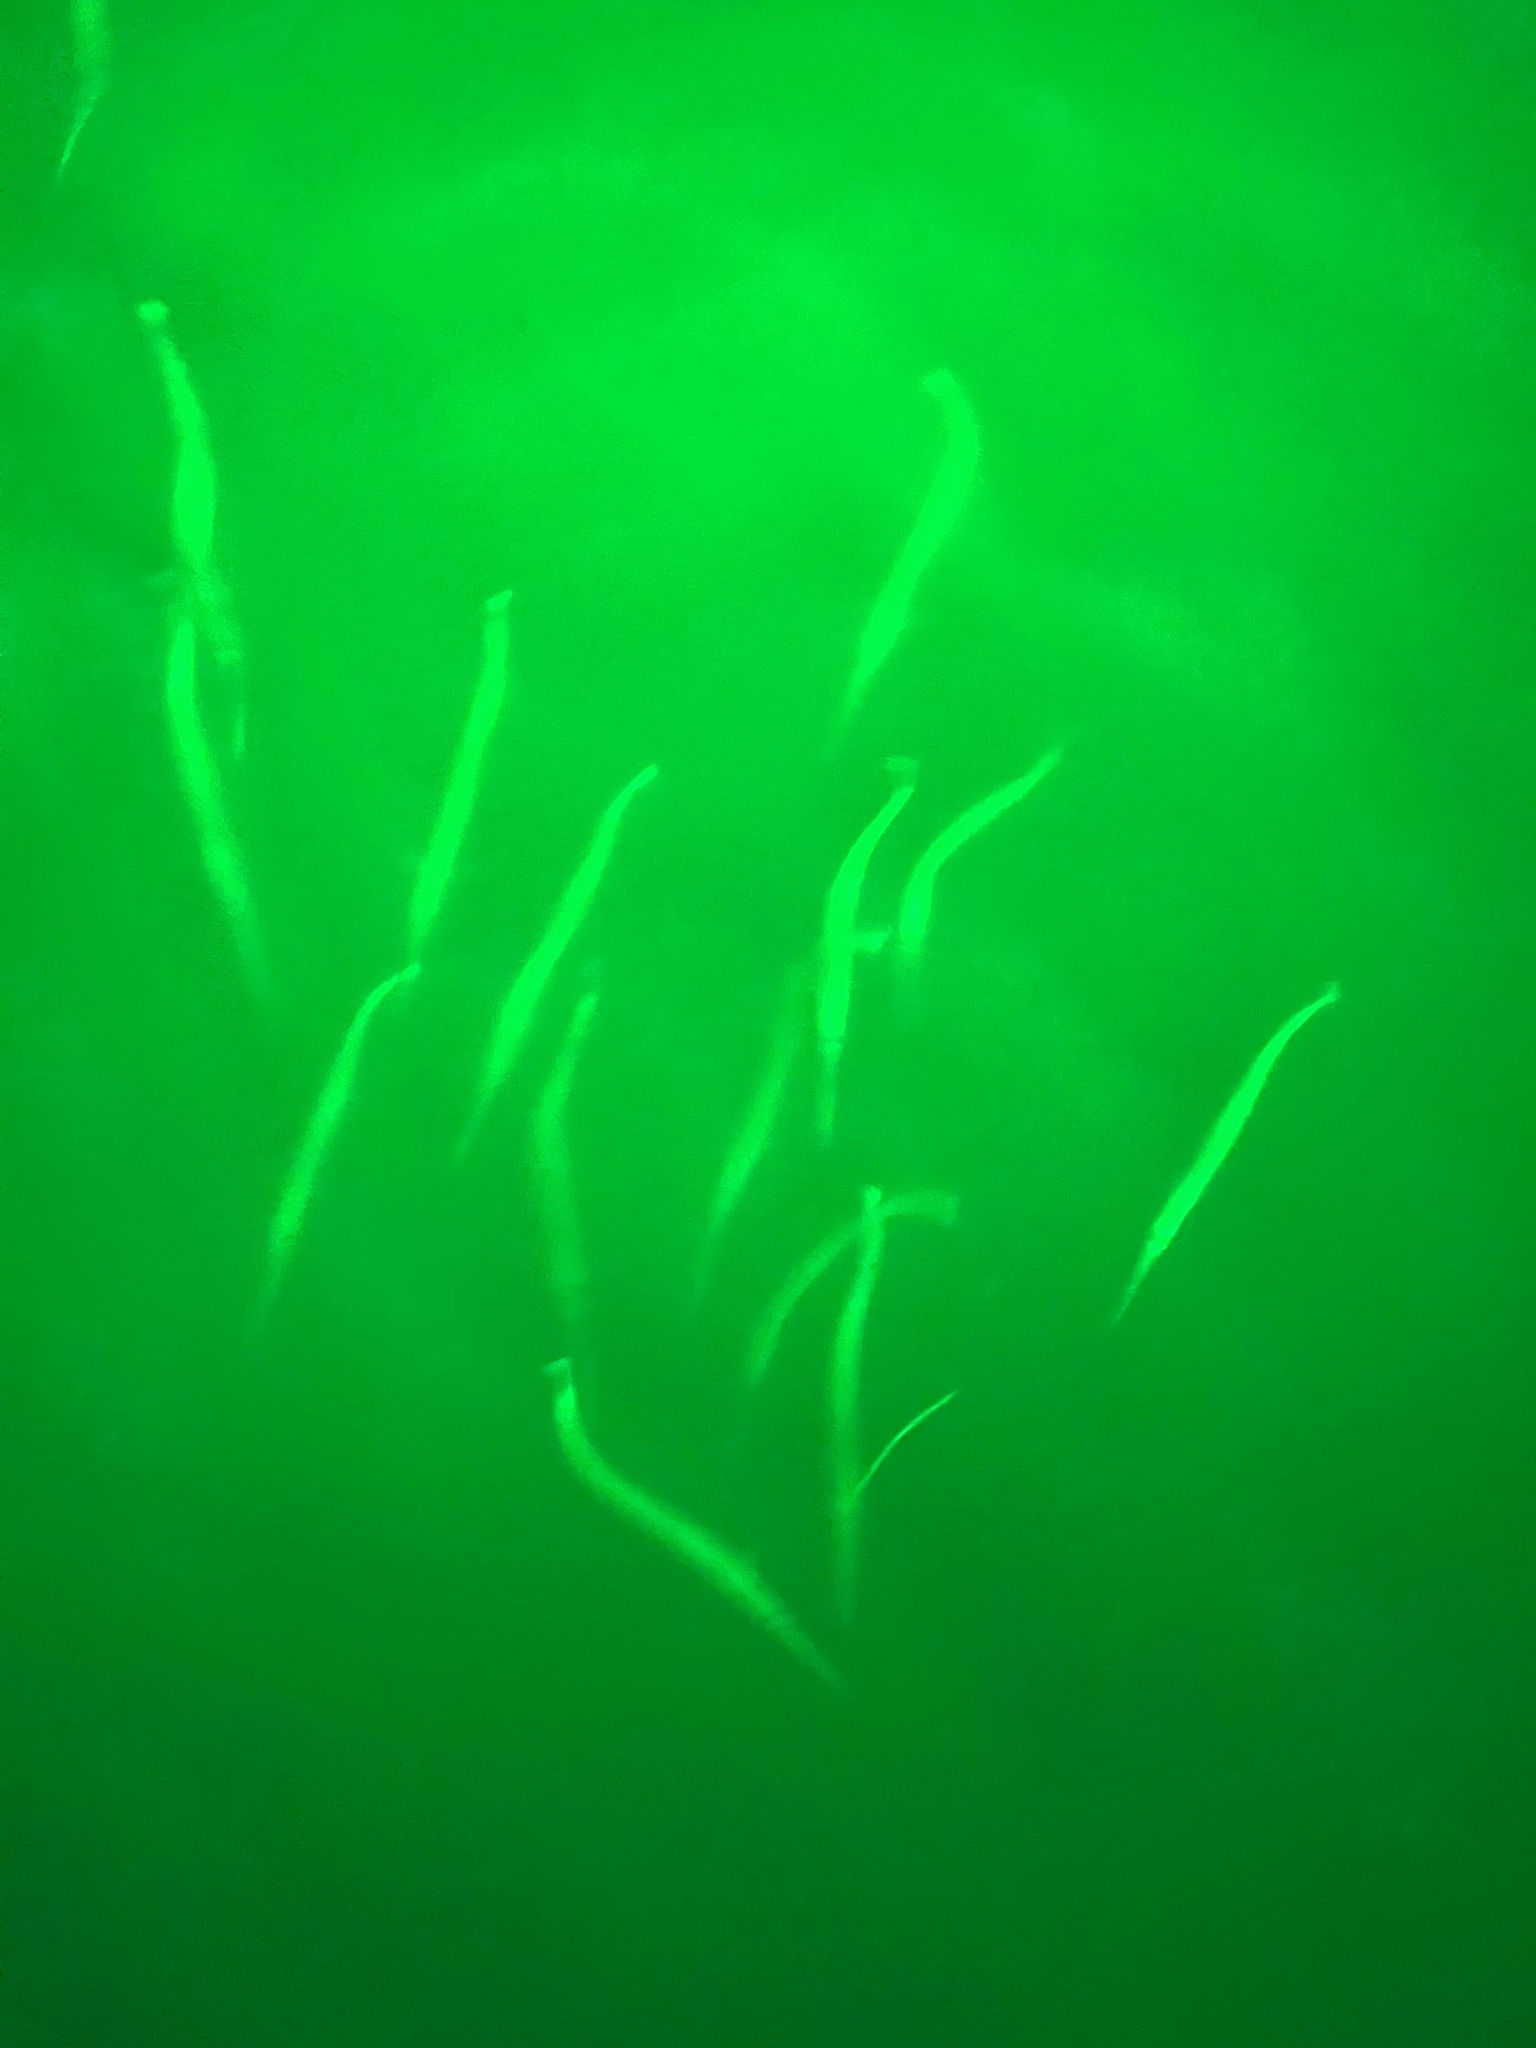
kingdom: Animalia
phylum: Chordata
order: Beloniformes
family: Belonidae
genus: Strongylura
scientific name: Strongylura marina
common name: Atlantic needlefish
